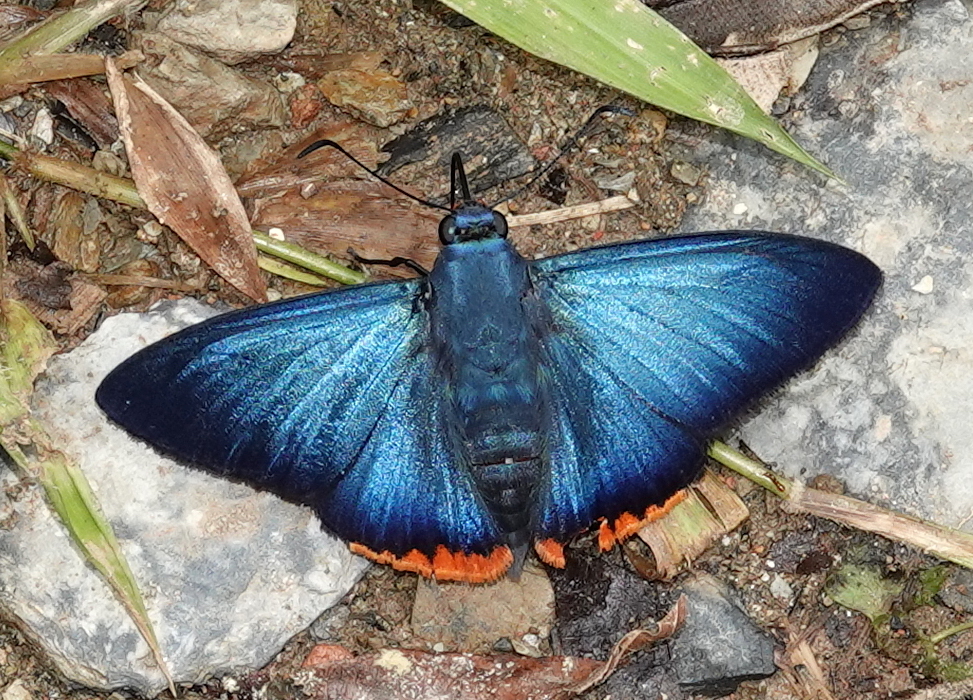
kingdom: Animalia
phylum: Arthropoda
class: Insecta
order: Lepidoptera
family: Hesperiidae
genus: Chalypyge
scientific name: Chalypyge
